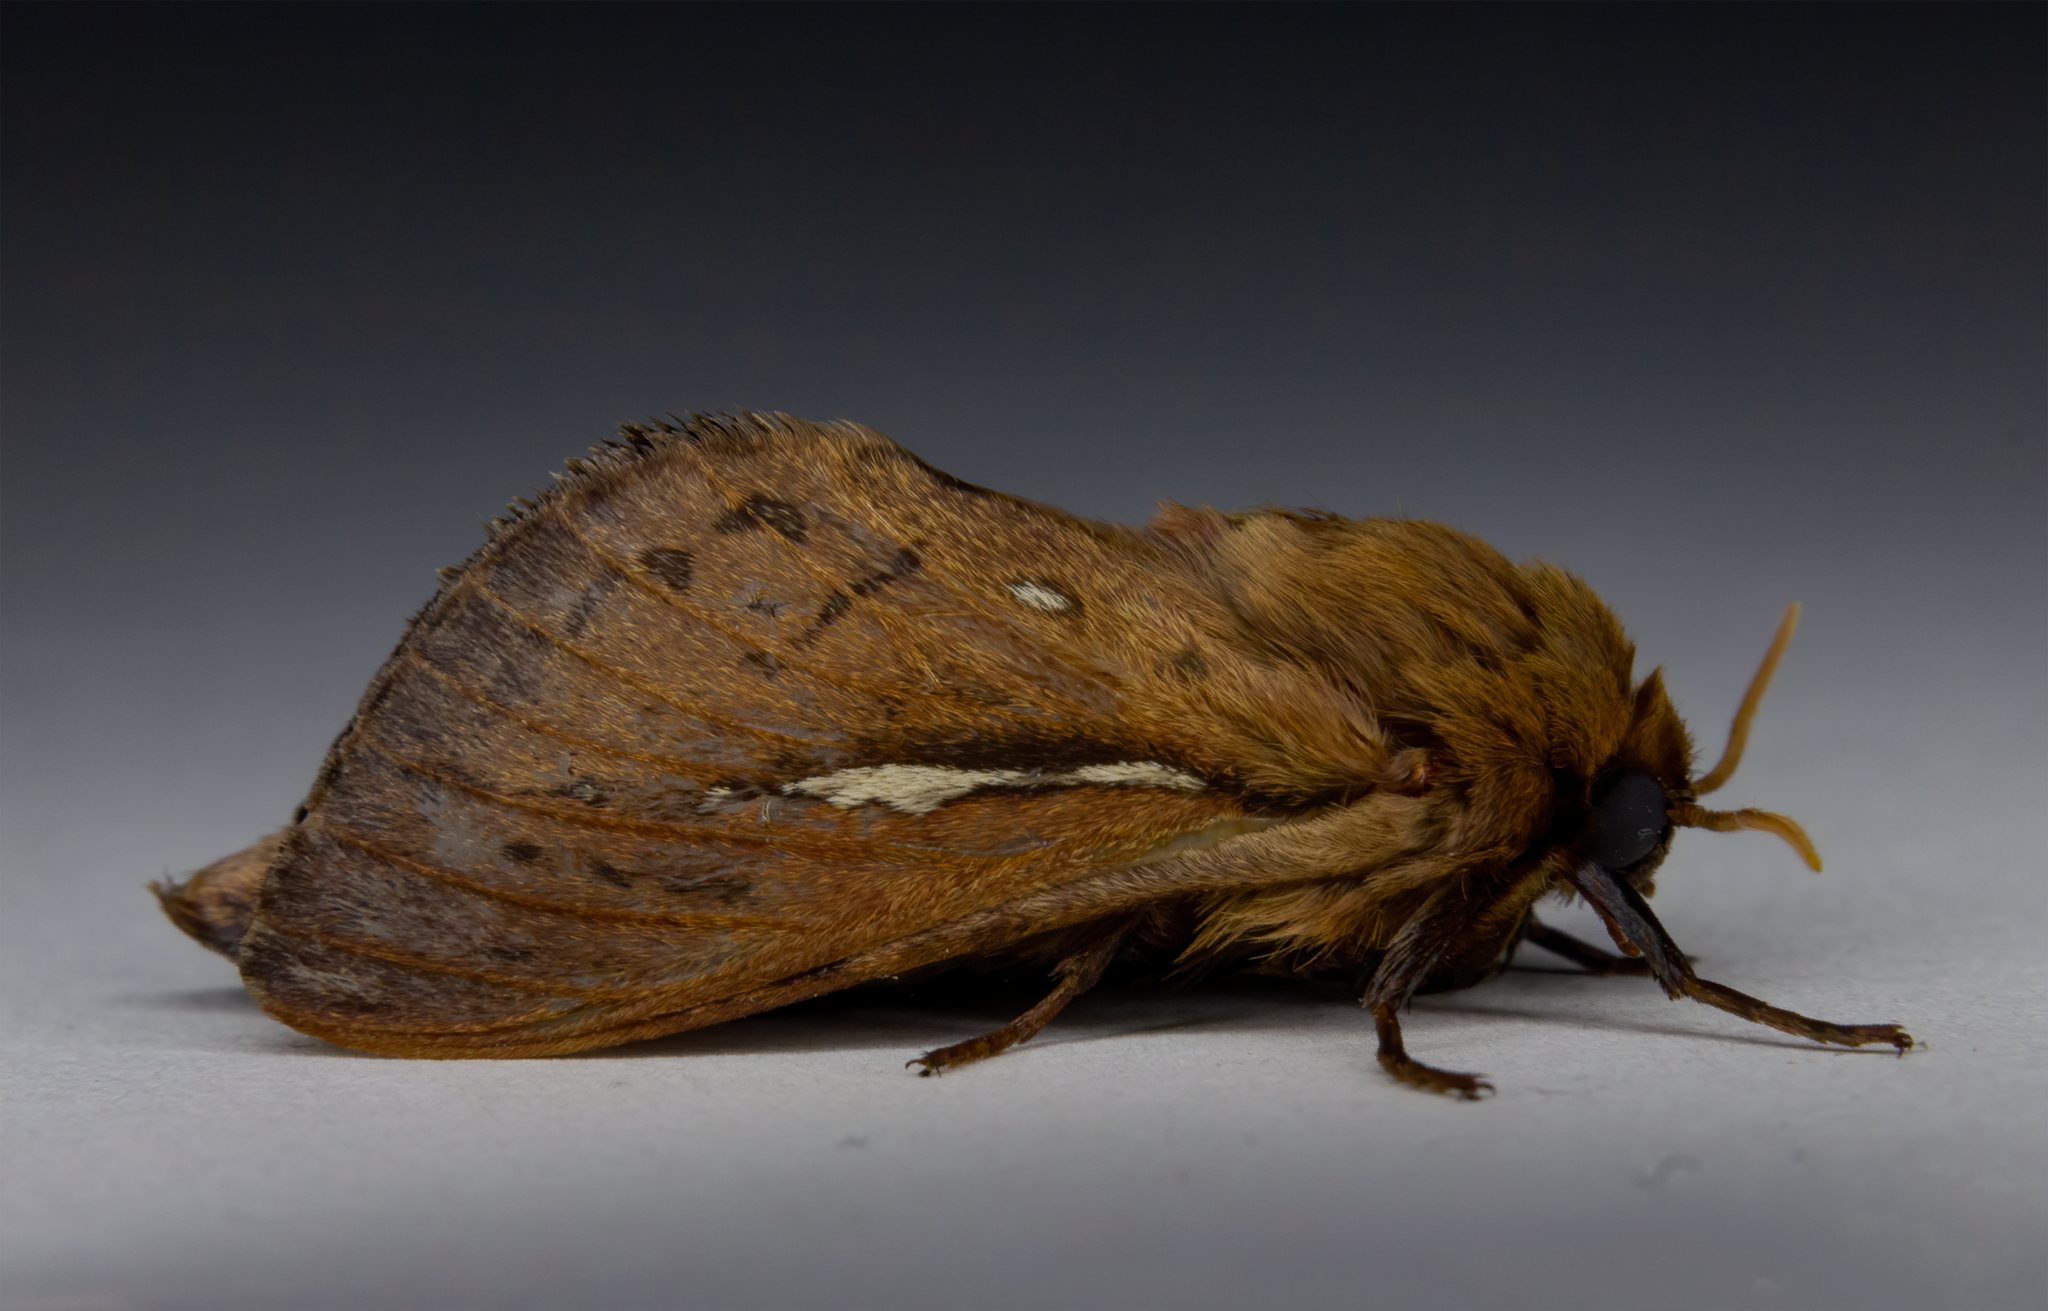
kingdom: Animalia
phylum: Arthropoda
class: Insecta
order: Lepidoptera
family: Hepialidae
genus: Wiseana
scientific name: Wiseana umbraculatus
